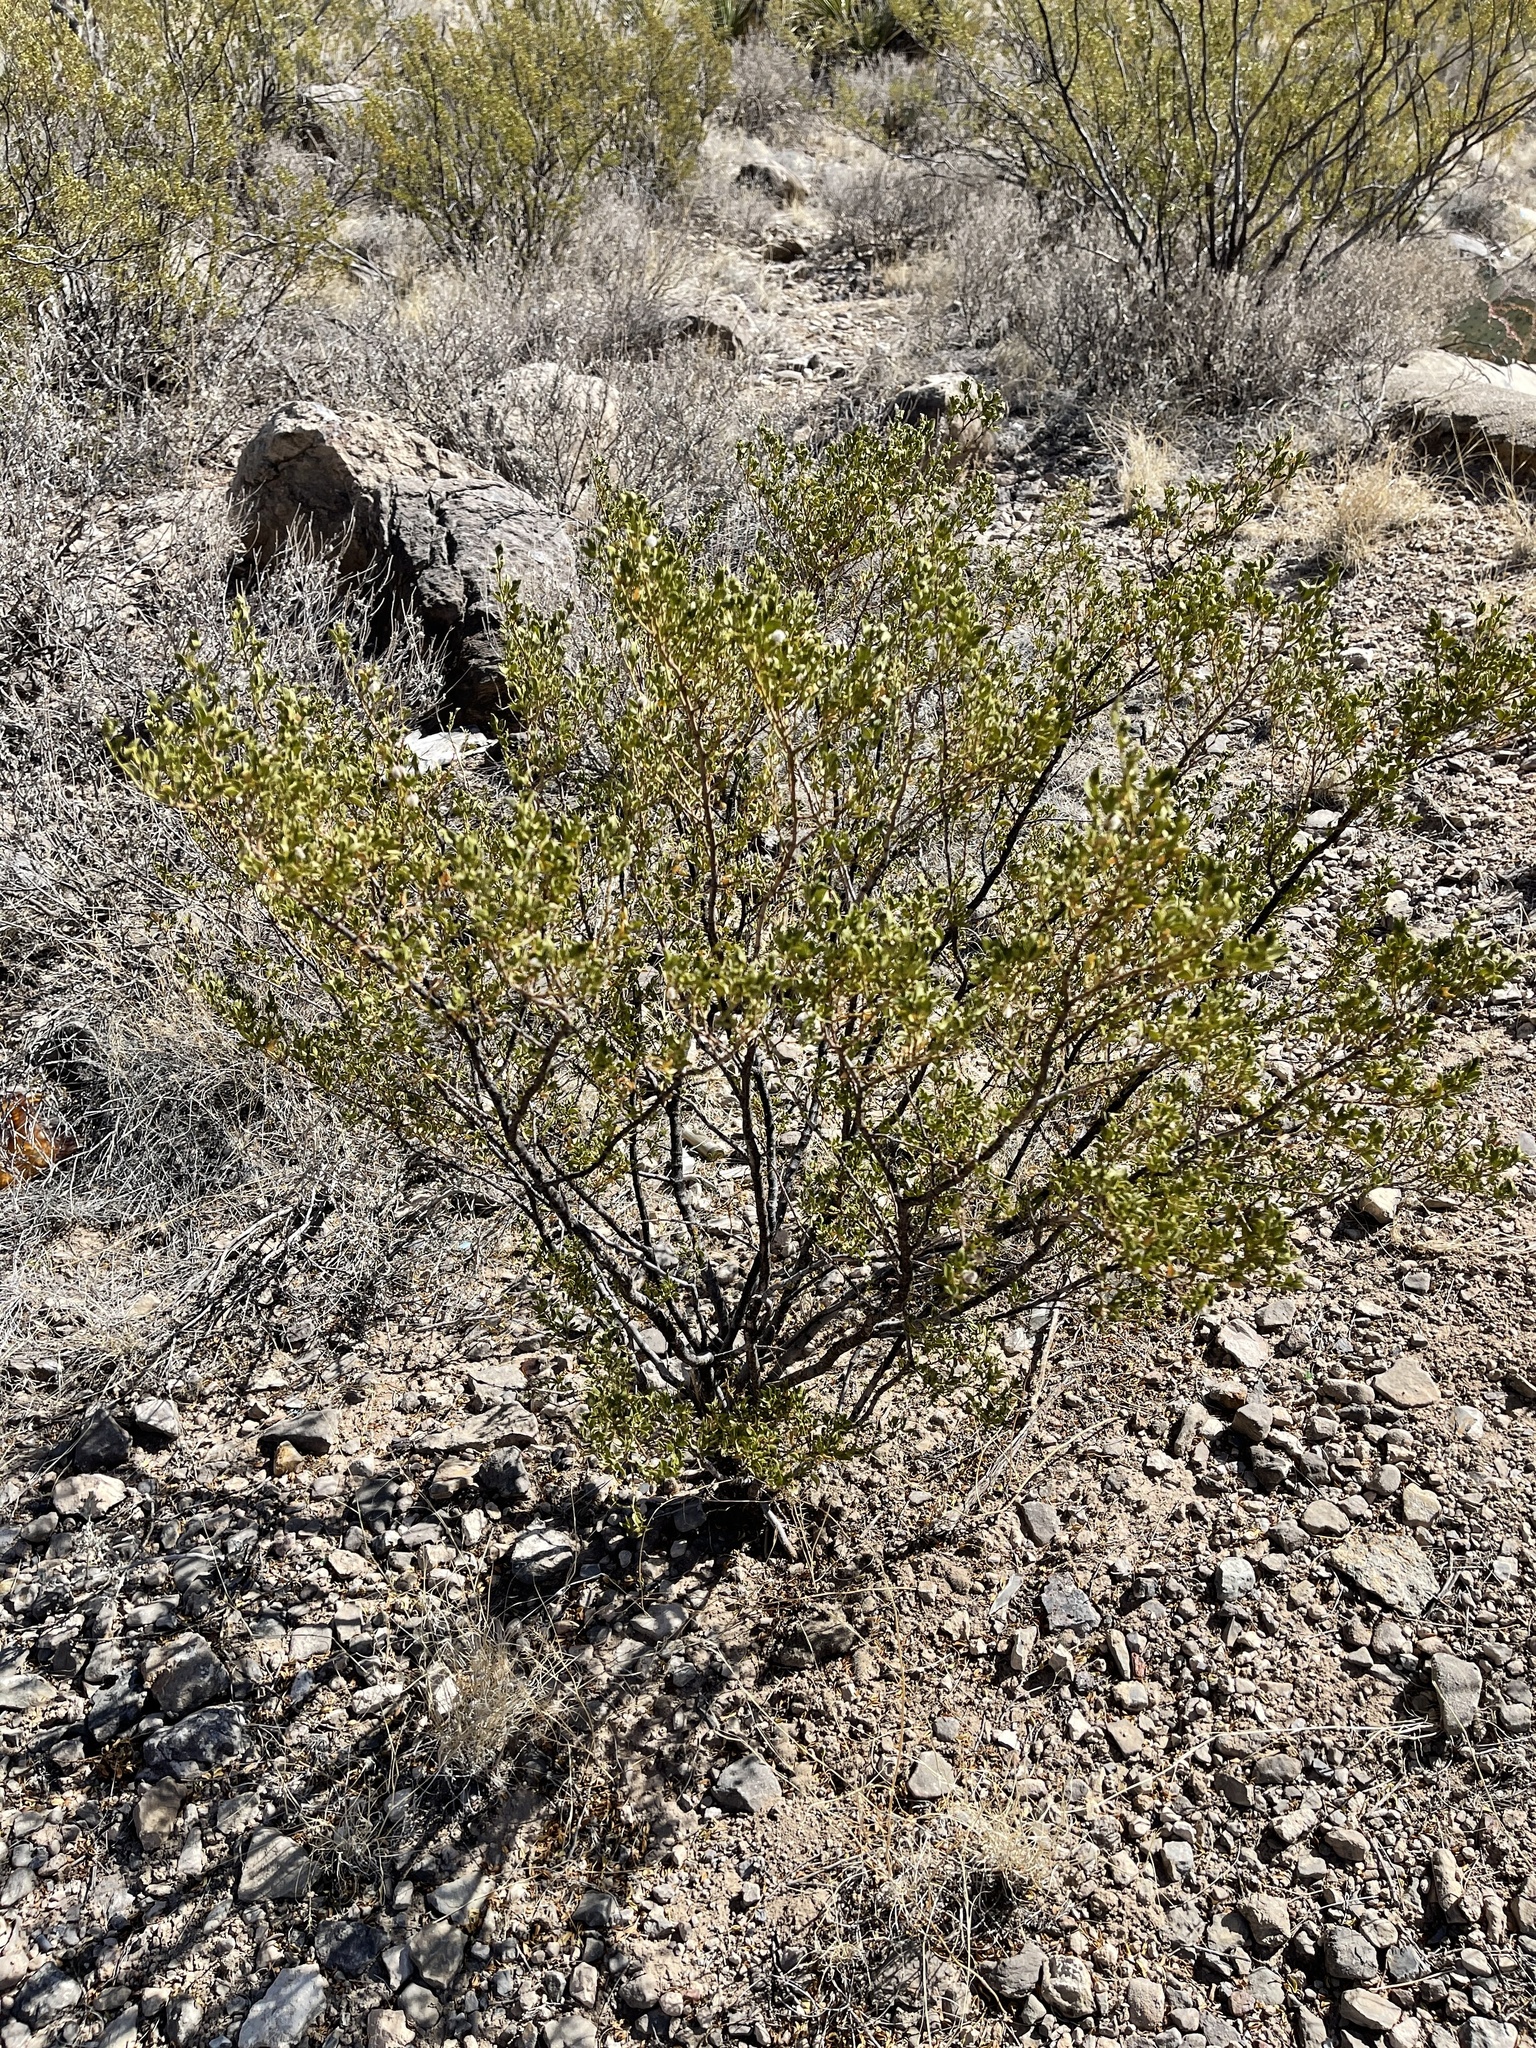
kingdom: Plantae
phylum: Tracheophyta
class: Magnoliopsida
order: Zygophyllales
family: Zygophyllaceae
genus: Larrea
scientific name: Larrea tridentata
